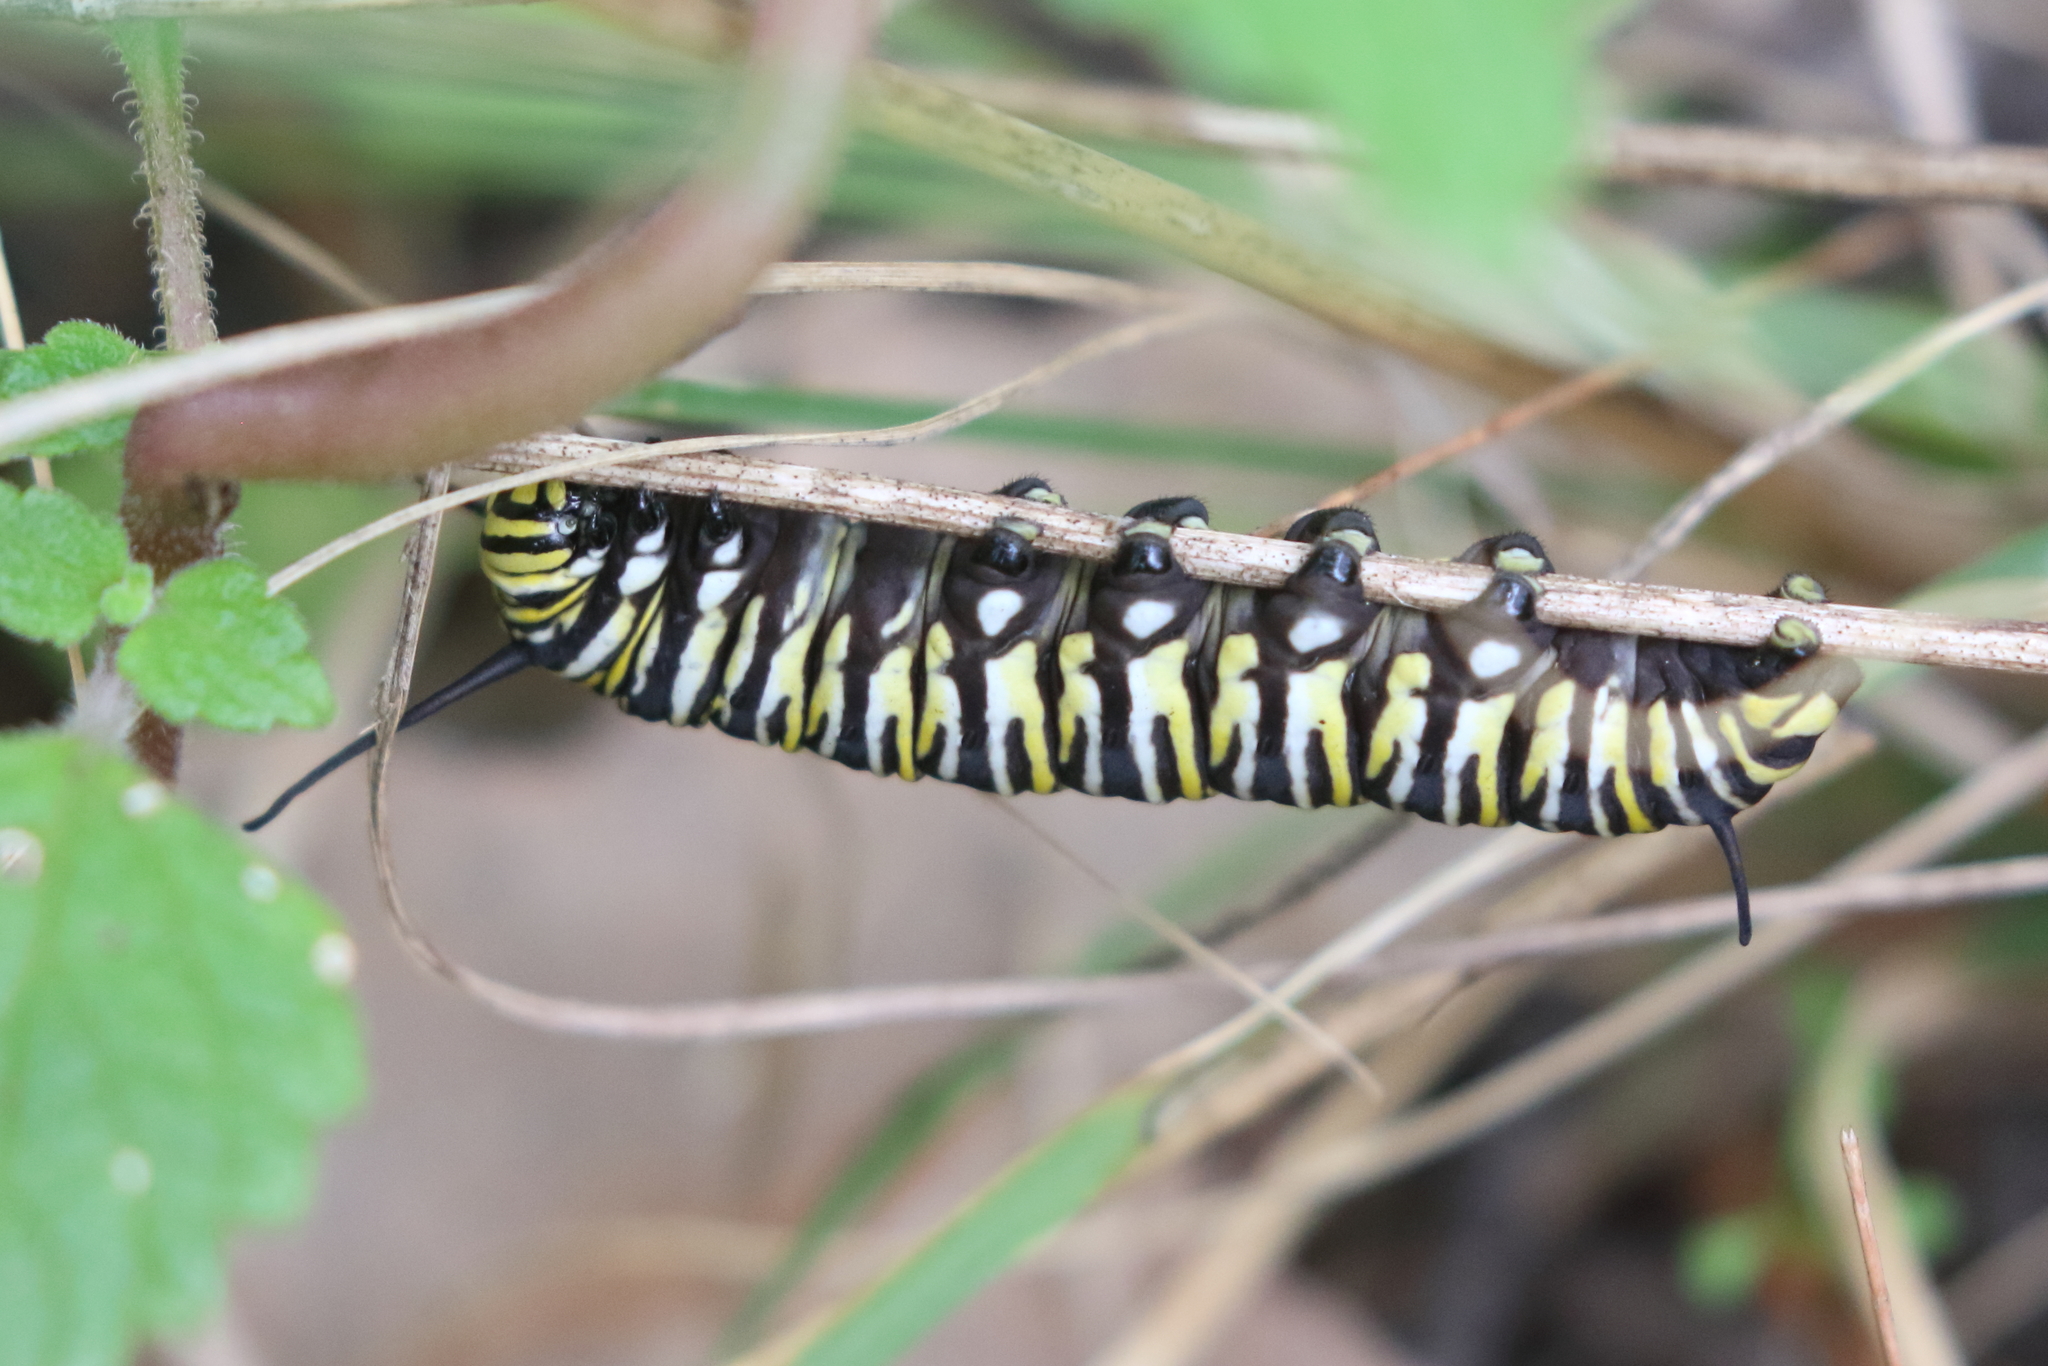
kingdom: Animalia
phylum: Arthropoda
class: Insecta
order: Lepidoptera
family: Nymphalidae
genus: Danaus
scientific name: Danaus plexippus
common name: Monarch
